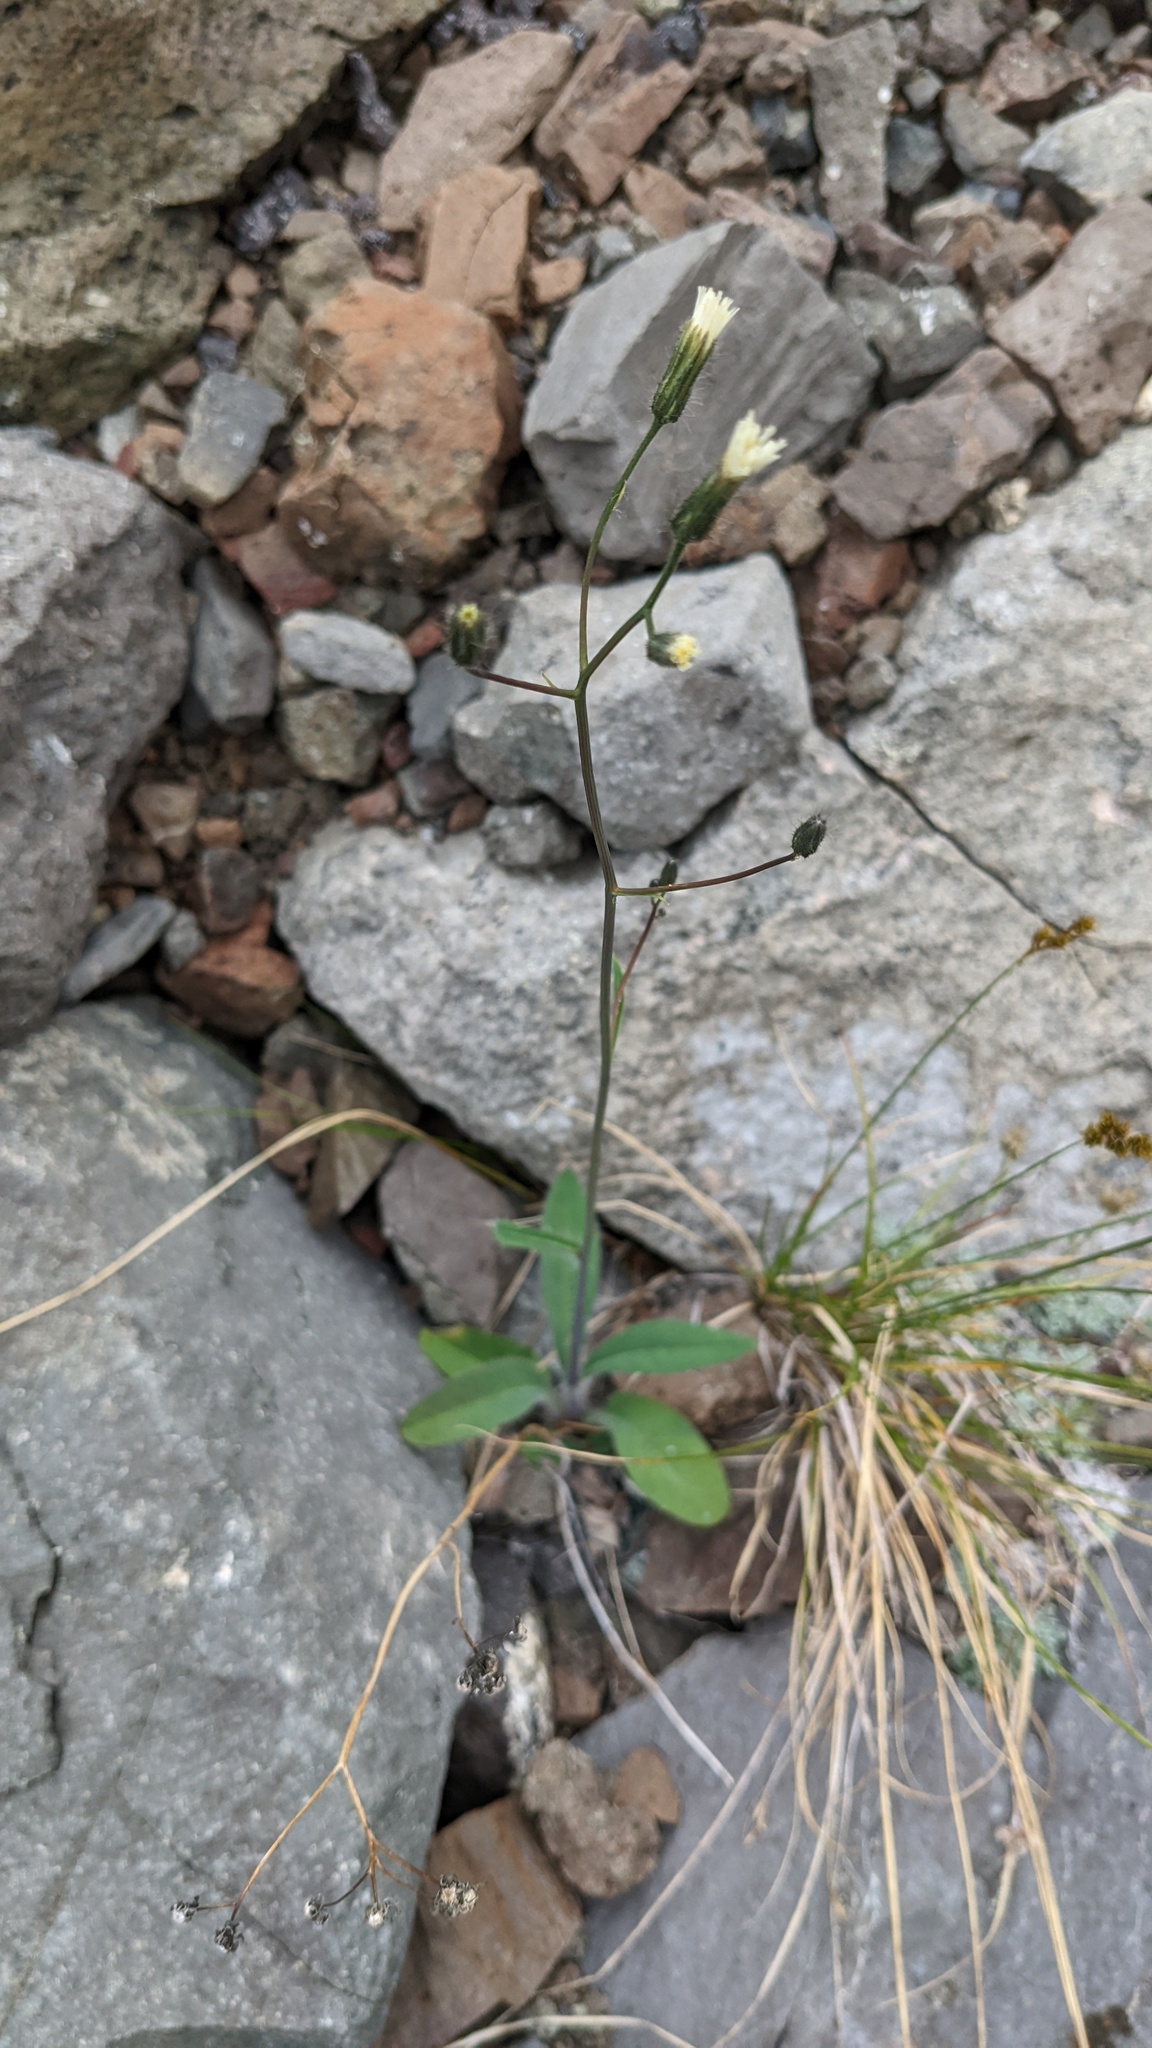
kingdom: Plantae
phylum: Tracheophyta
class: Magnoliopsida
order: Asterales
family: Asteraceae
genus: Hieracium
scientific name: Hieracium albiflorum
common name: White hawkweed
